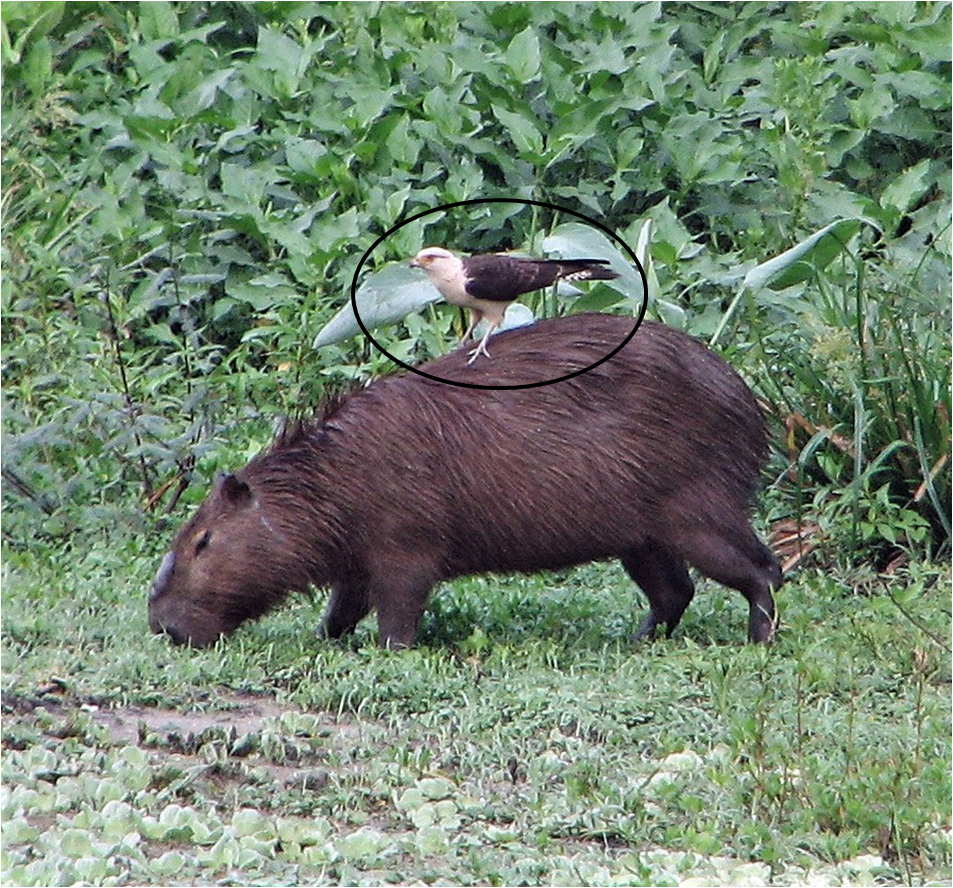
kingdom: Animalia
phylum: Chordata
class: Aves
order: Falconiformes
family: Falconidae
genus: Daptrius
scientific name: Daptrius
